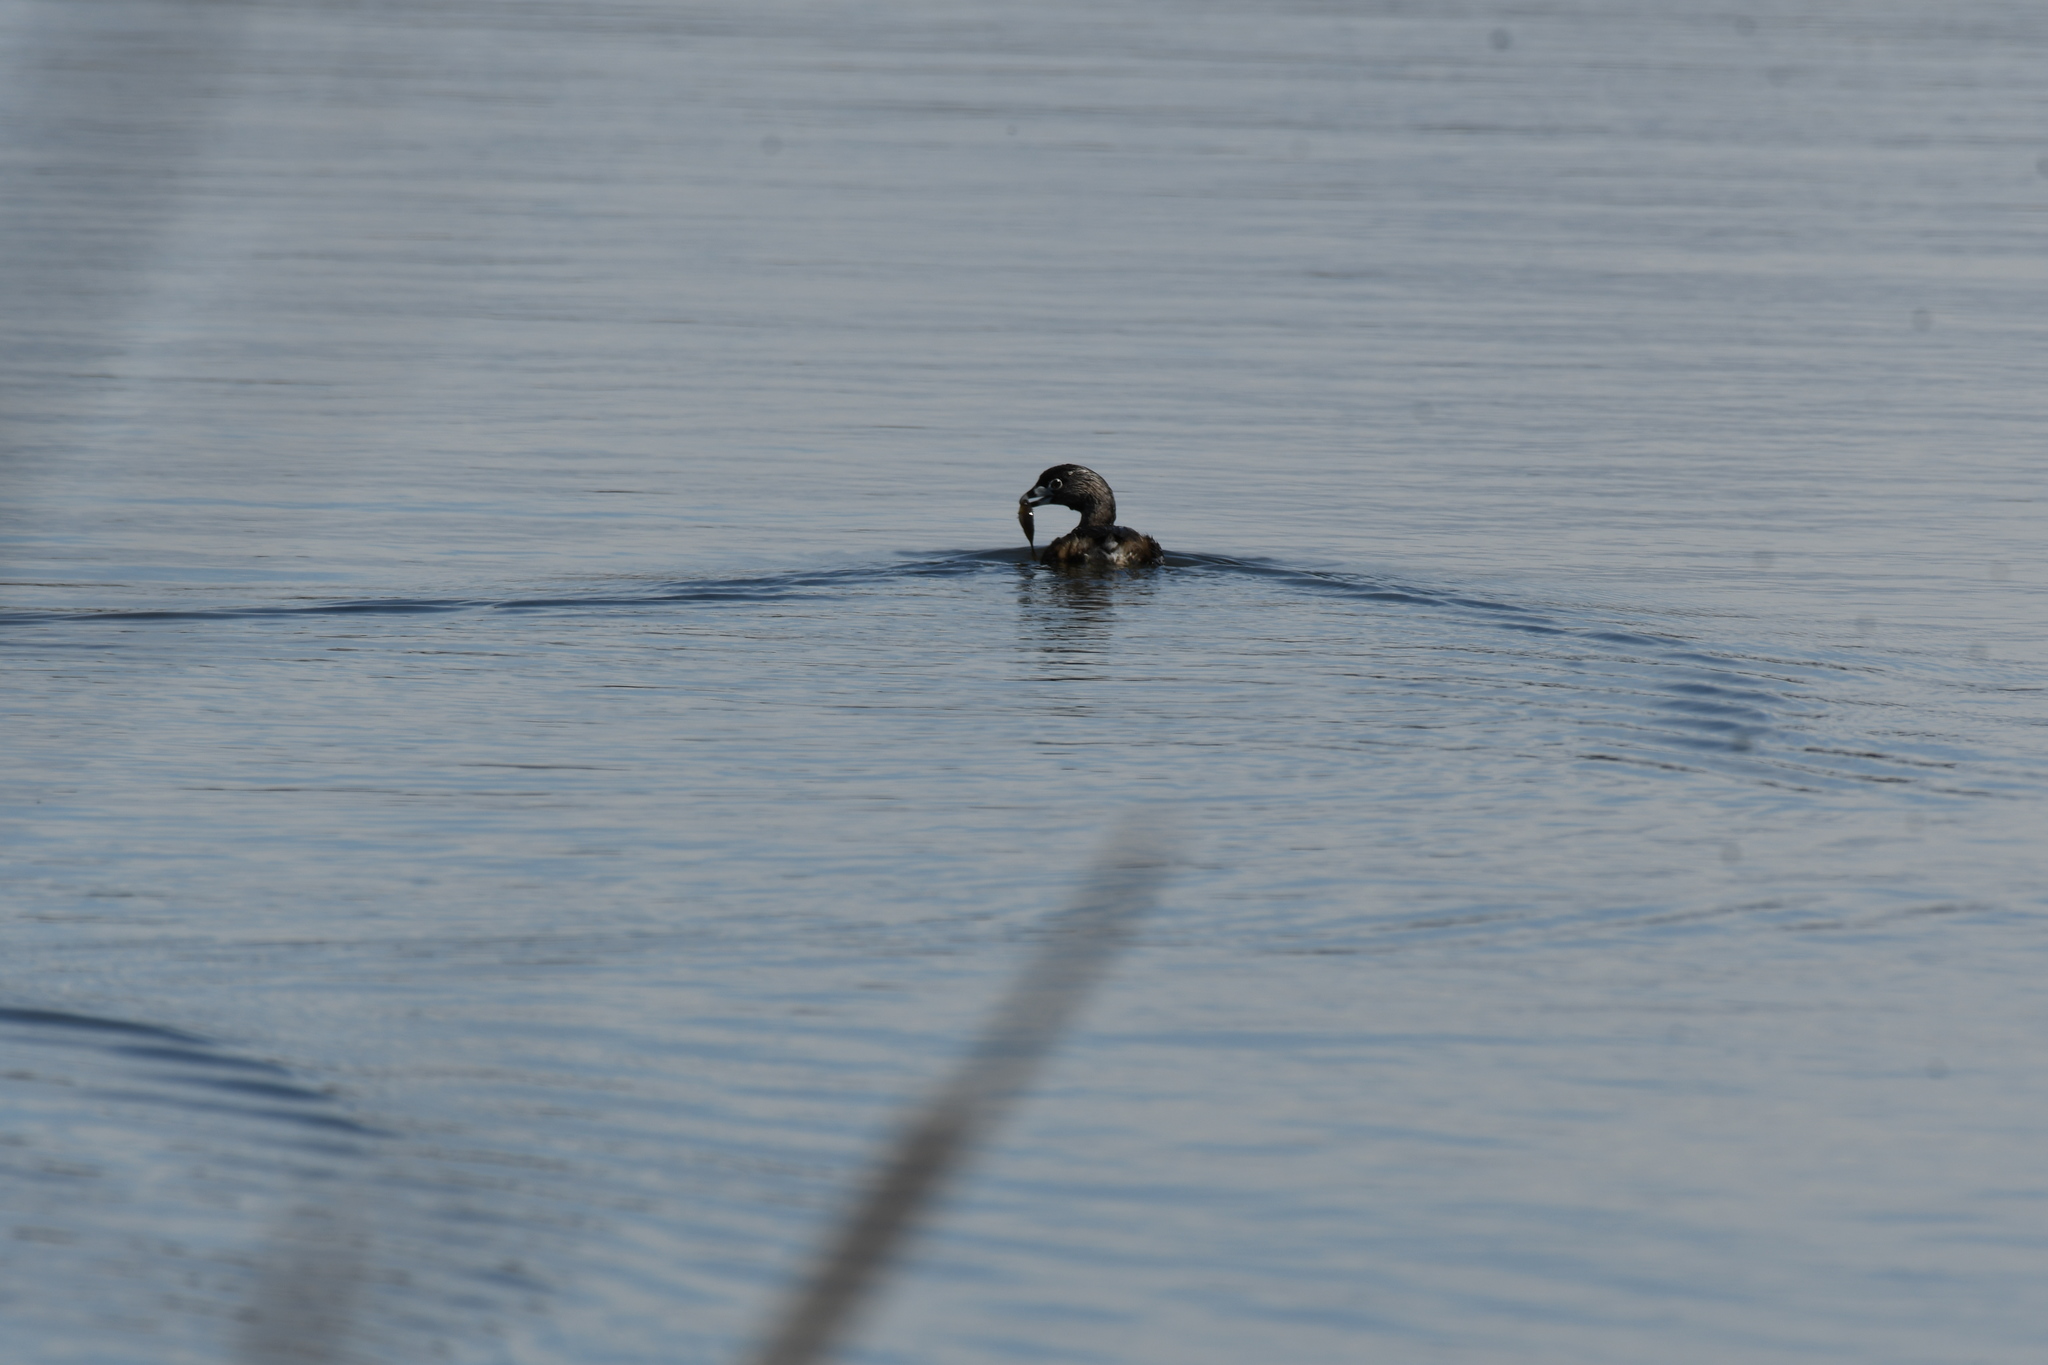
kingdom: Animalia
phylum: Chordata
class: Aves
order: Podicipediformes
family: Podicipedidae
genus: Podilymbus
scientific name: Podilymbus podiceps
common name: Pied-billed grebe
